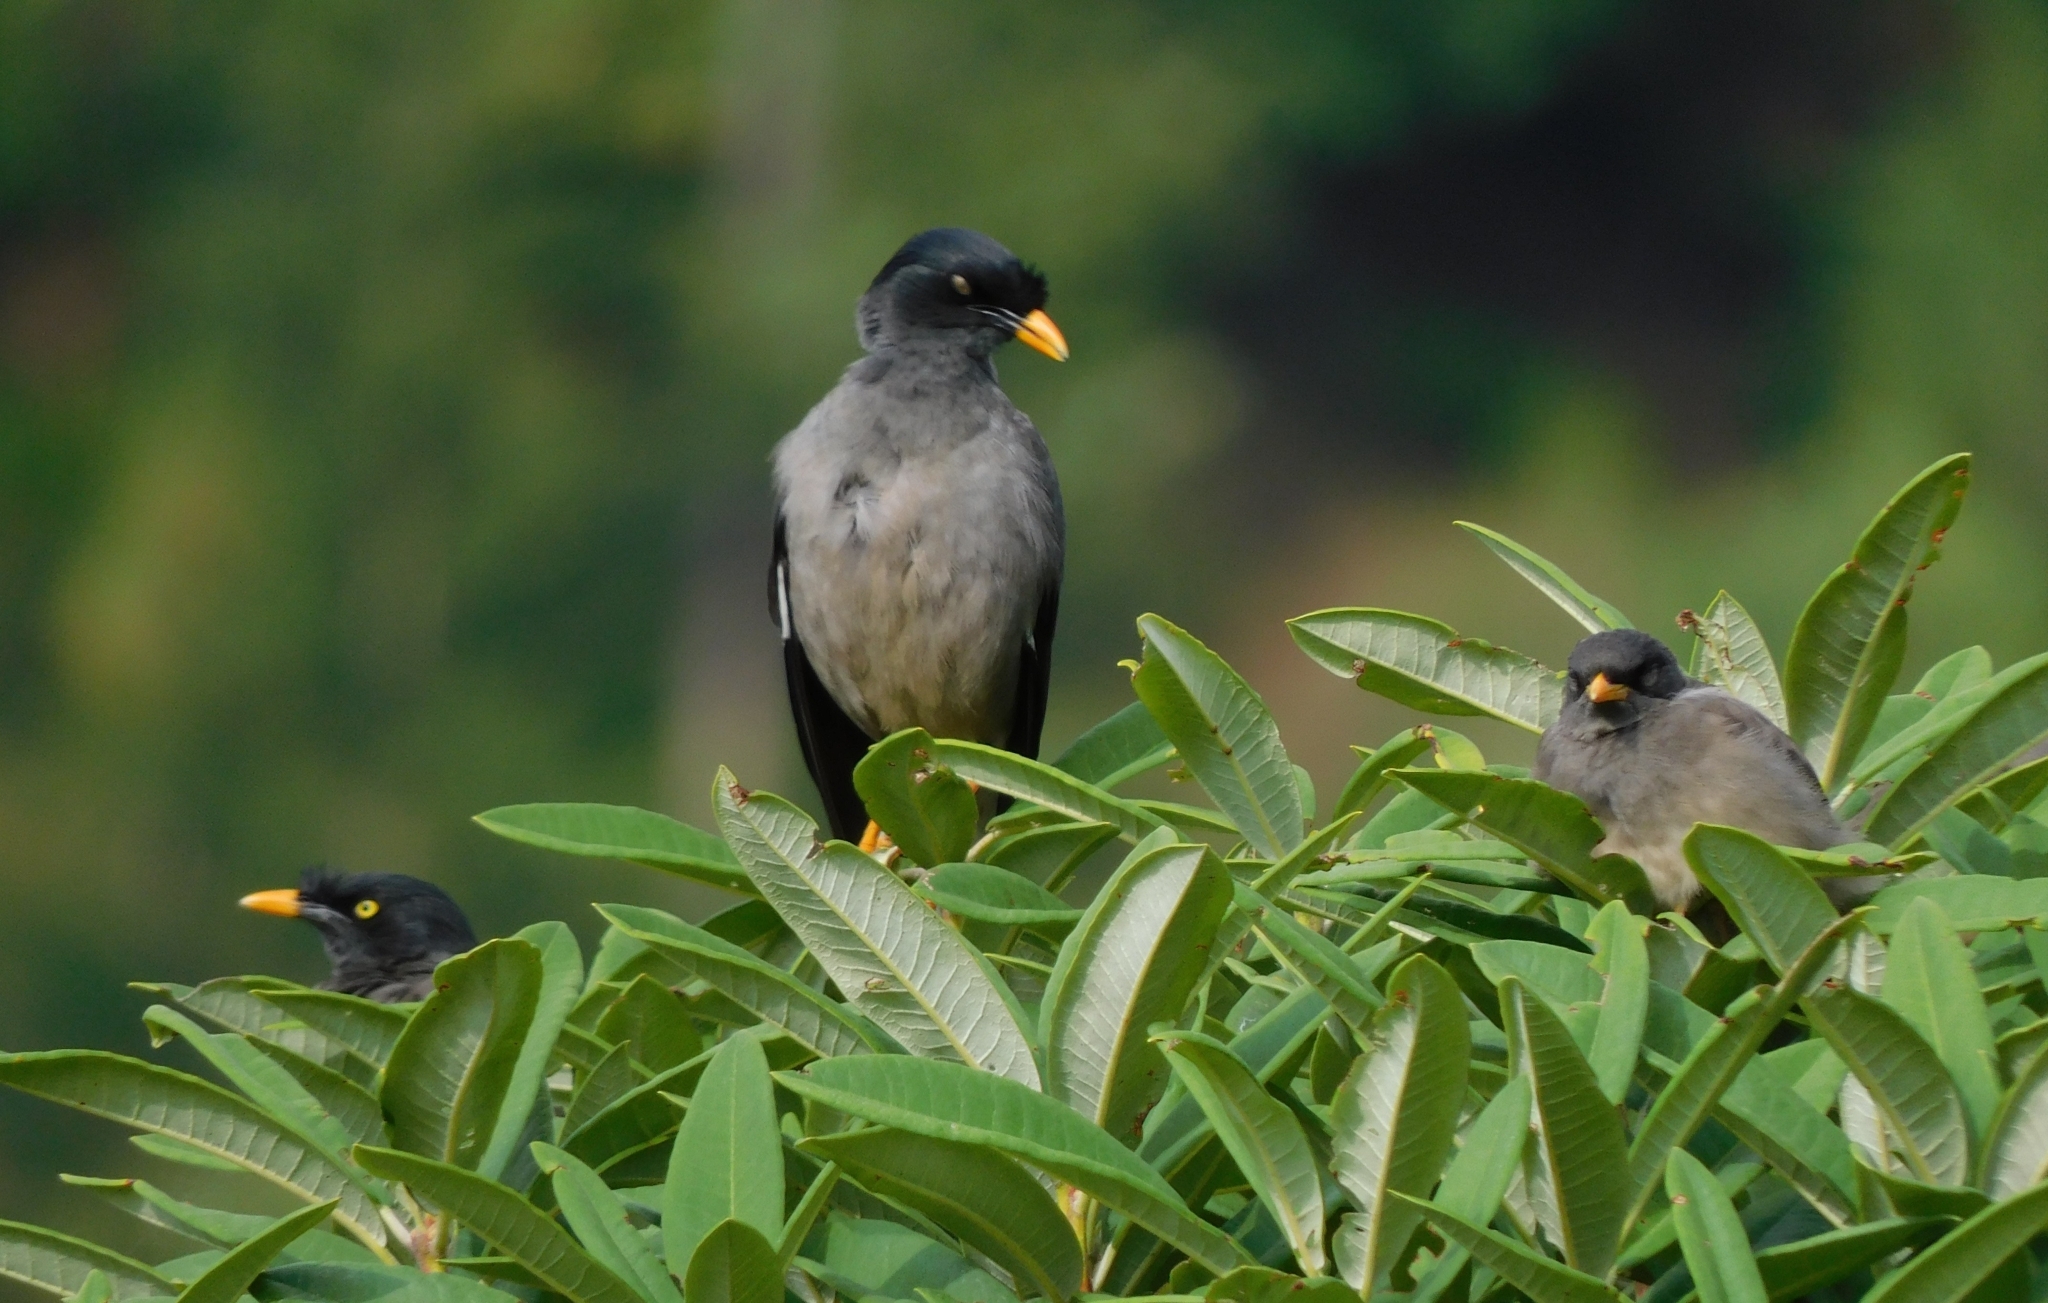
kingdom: Animalia
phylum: Chordata
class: Aves
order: Passeriformes
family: Sturnidae
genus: Acridotheres
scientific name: Acridotheres fuscus
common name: Jungle myna
